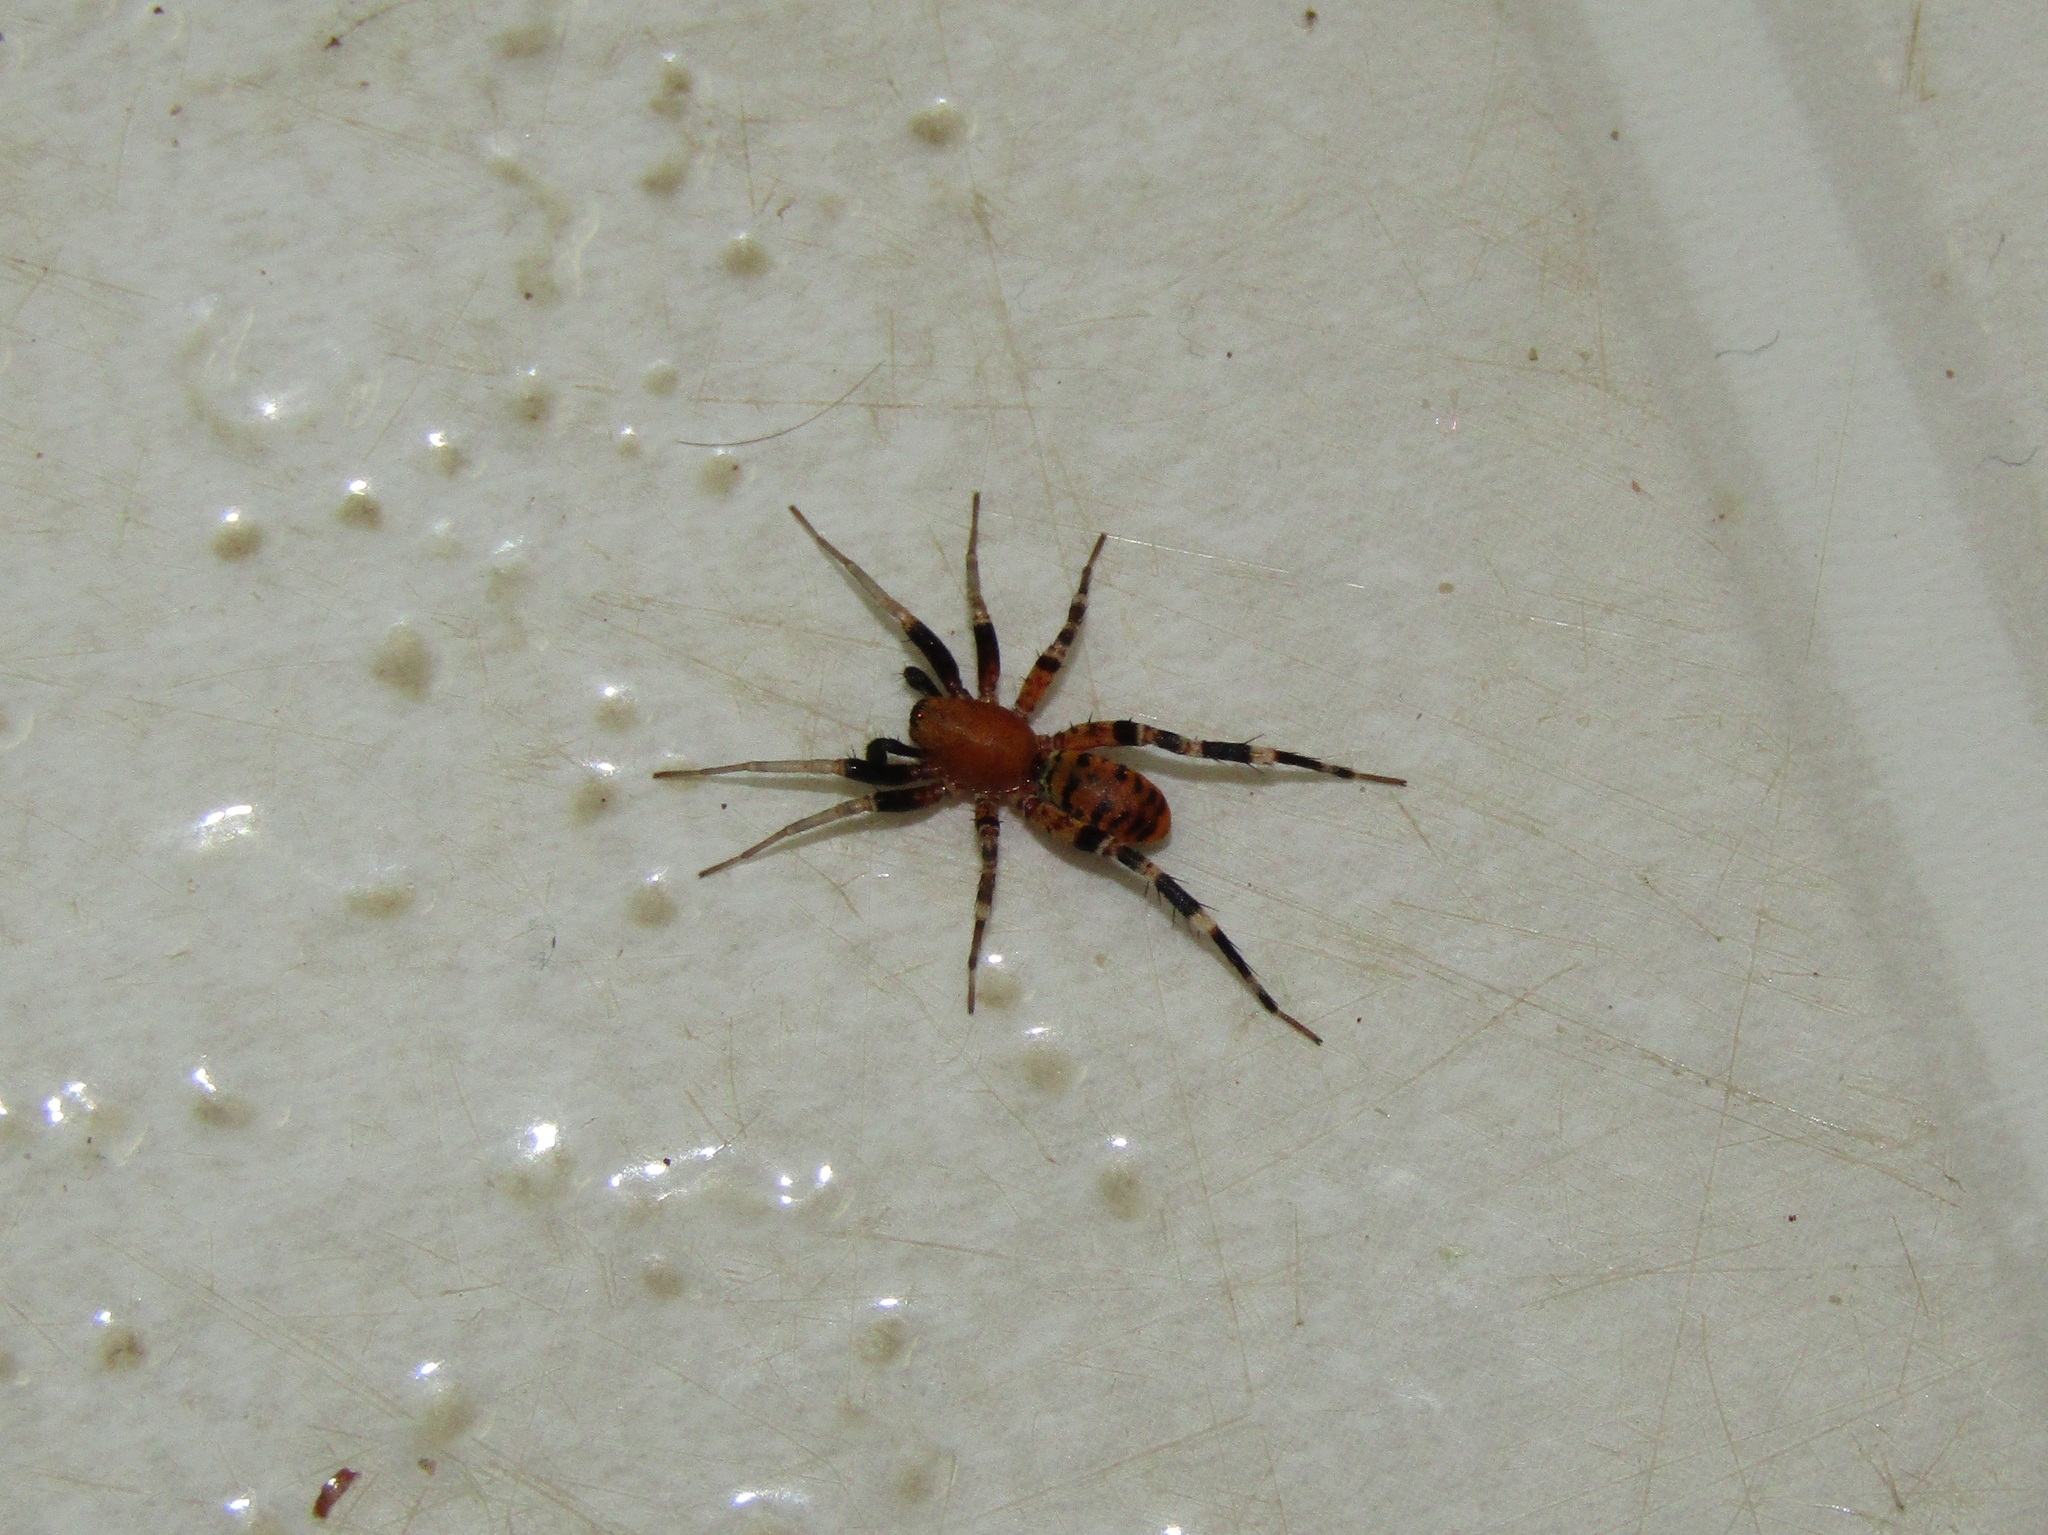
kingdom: Animalia
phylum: Arthropoda
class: Arachnida
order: Araneae
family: Corinnidae
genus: Castianeira
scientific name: Castianeira amoena
